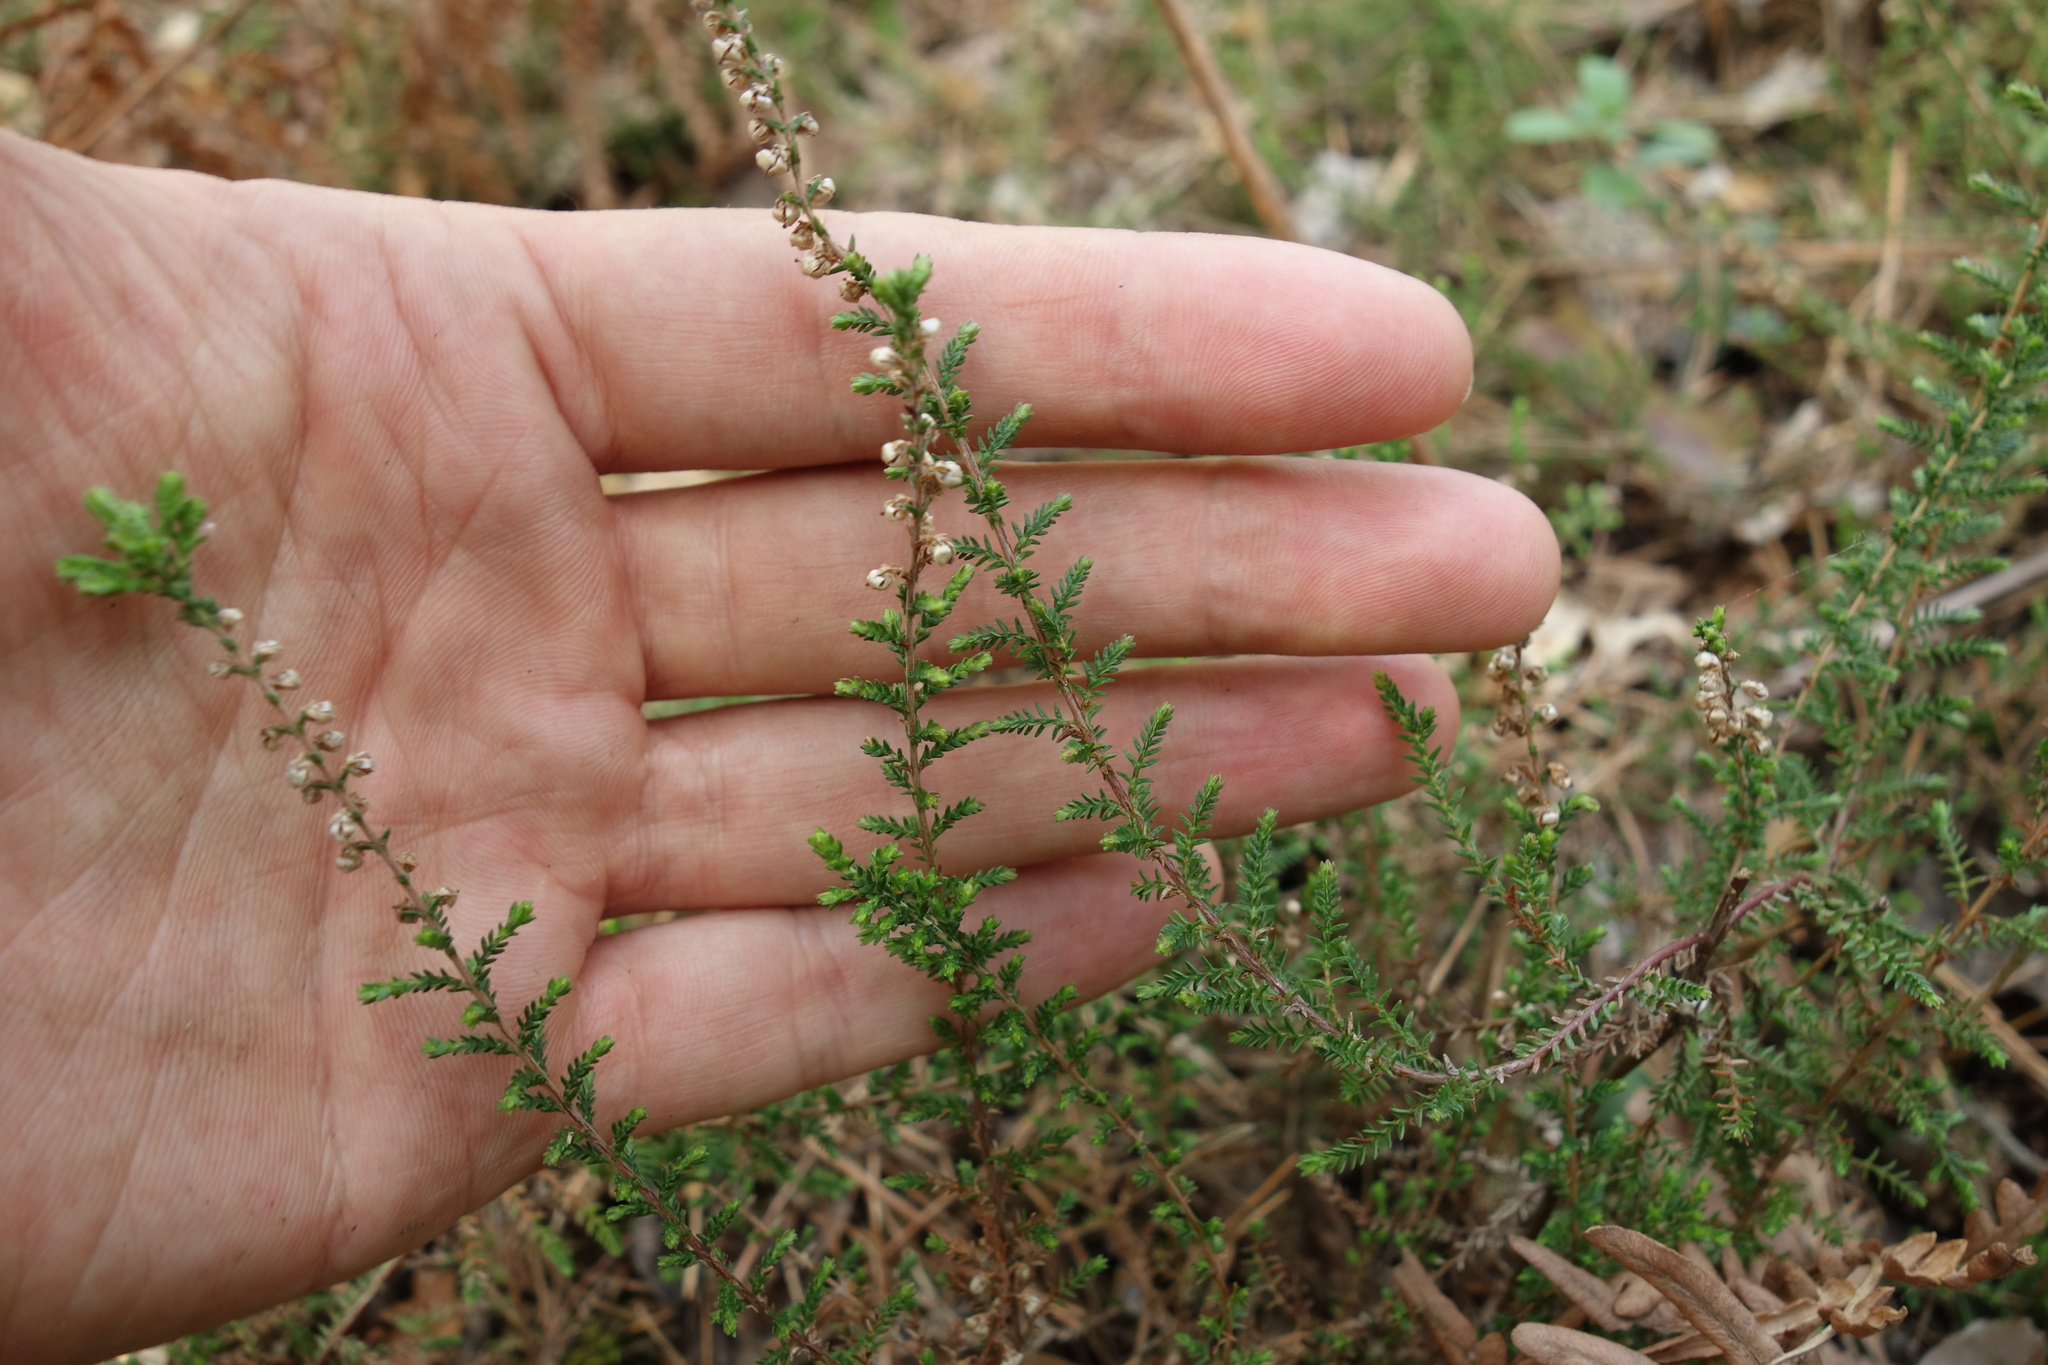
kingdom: Plantae
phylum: Tracheophyta
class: Magnoliopsida
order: Ericales
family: Ericaceae
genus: Calluna
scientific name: Calluna vulgaris
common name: Heather
